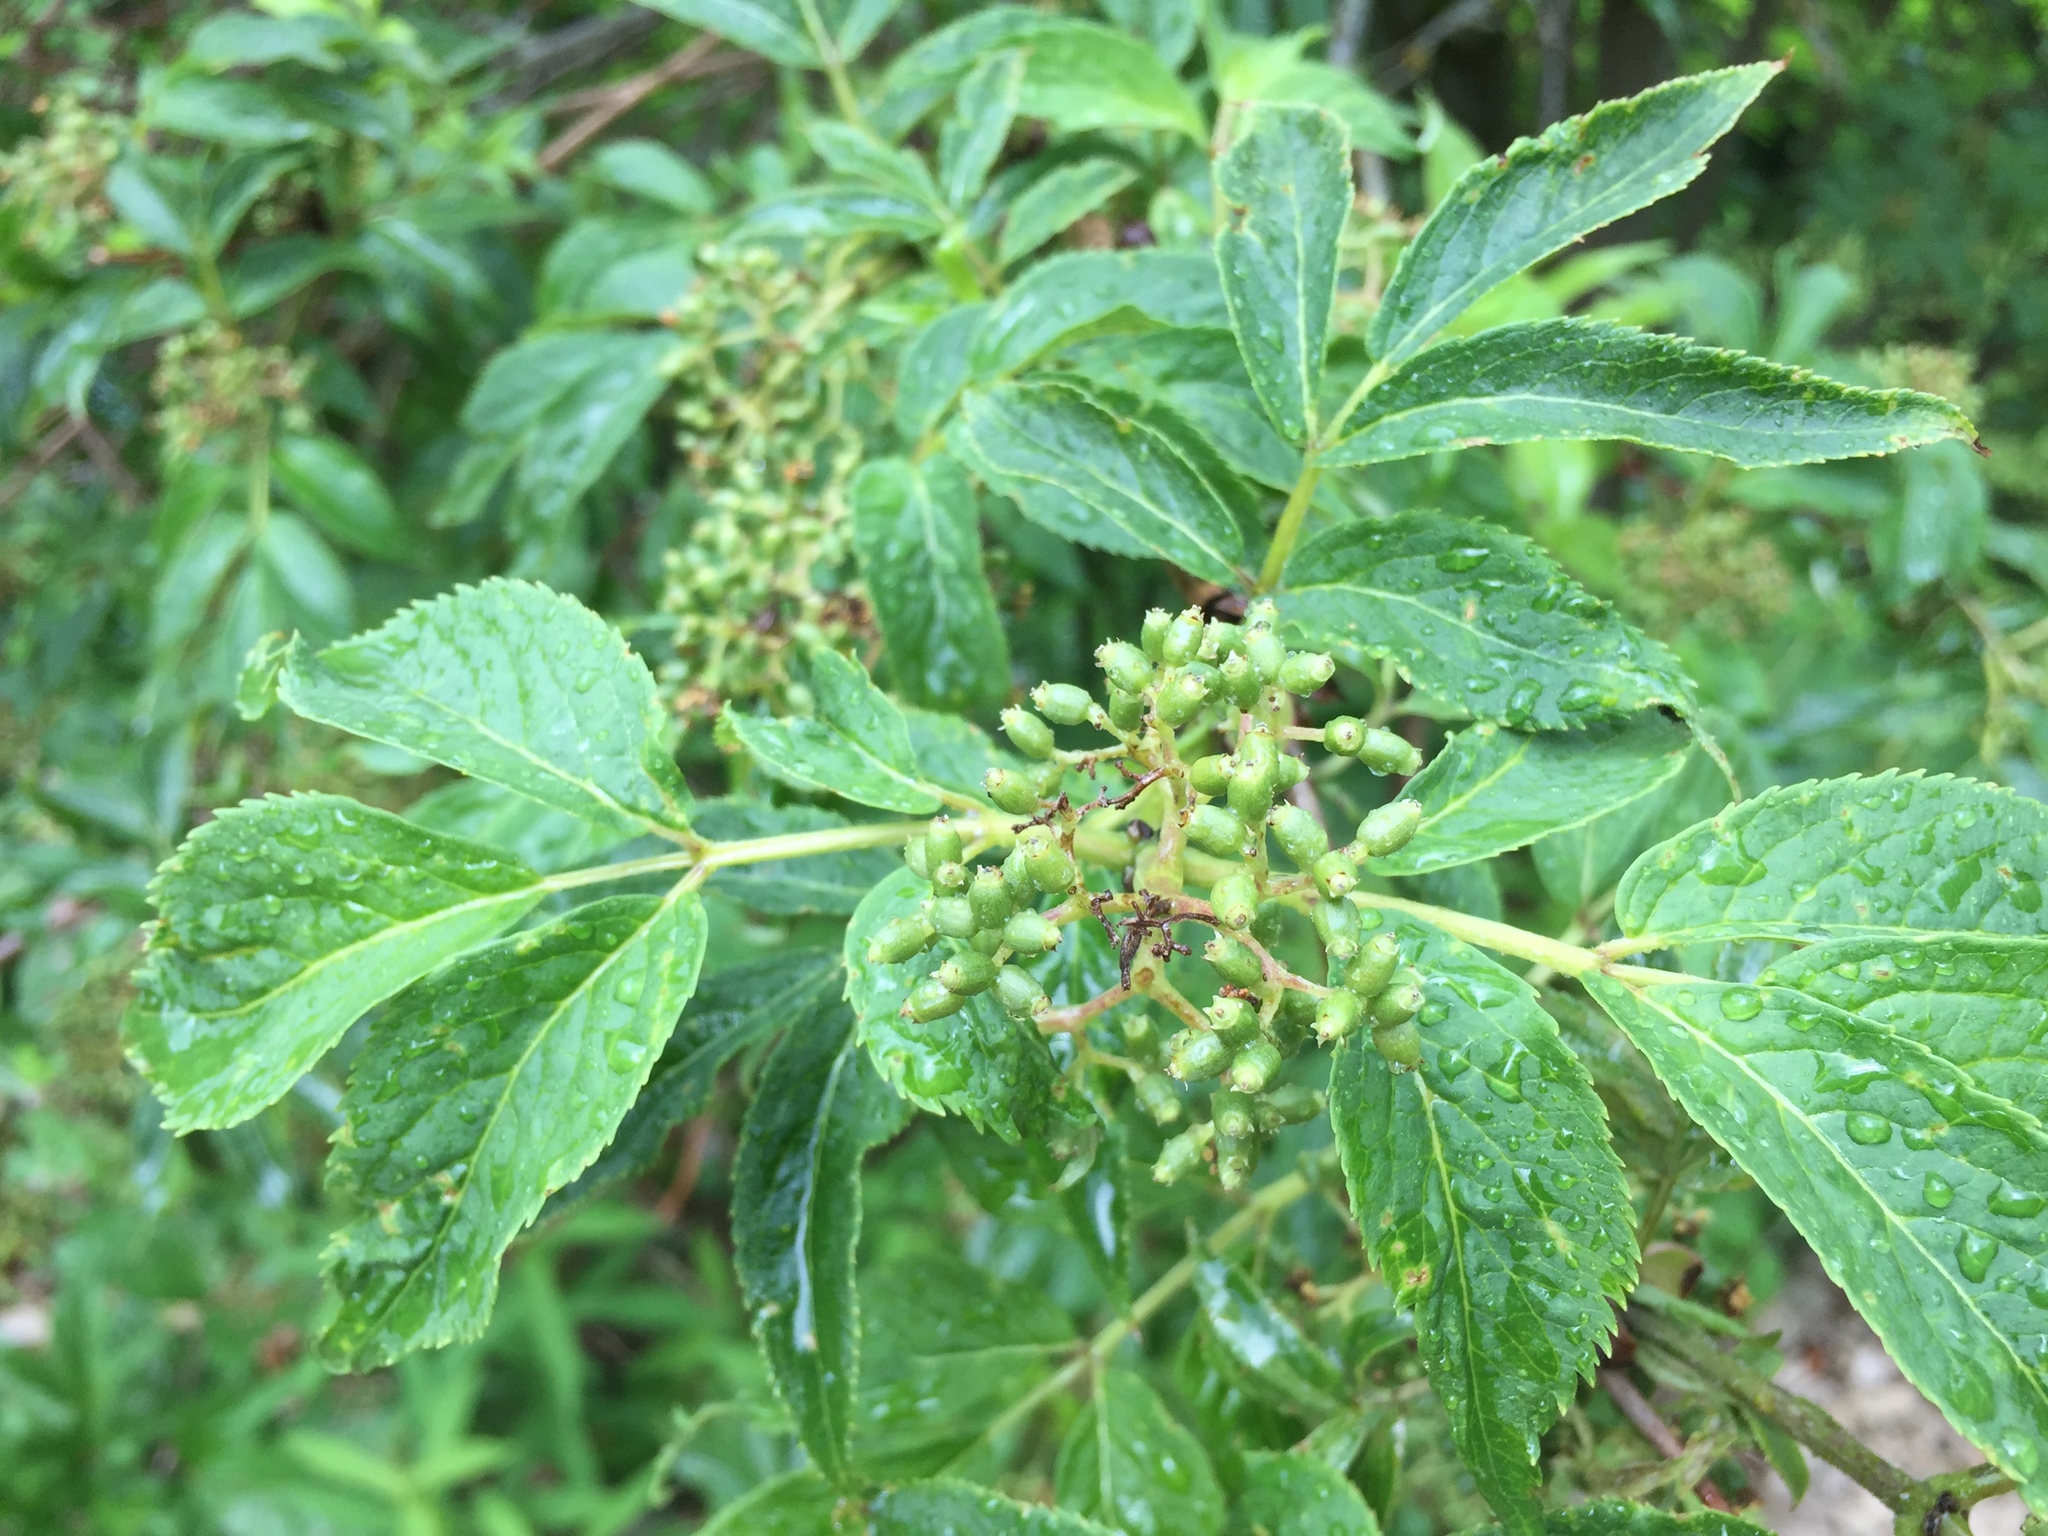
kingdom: Plantae
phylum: Tracheophyta
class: Magnoliopsida
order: Dipsacales
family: Viburnaceae
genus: Sambucus
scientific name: Sambucus racemosa
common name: Red-berried elder
